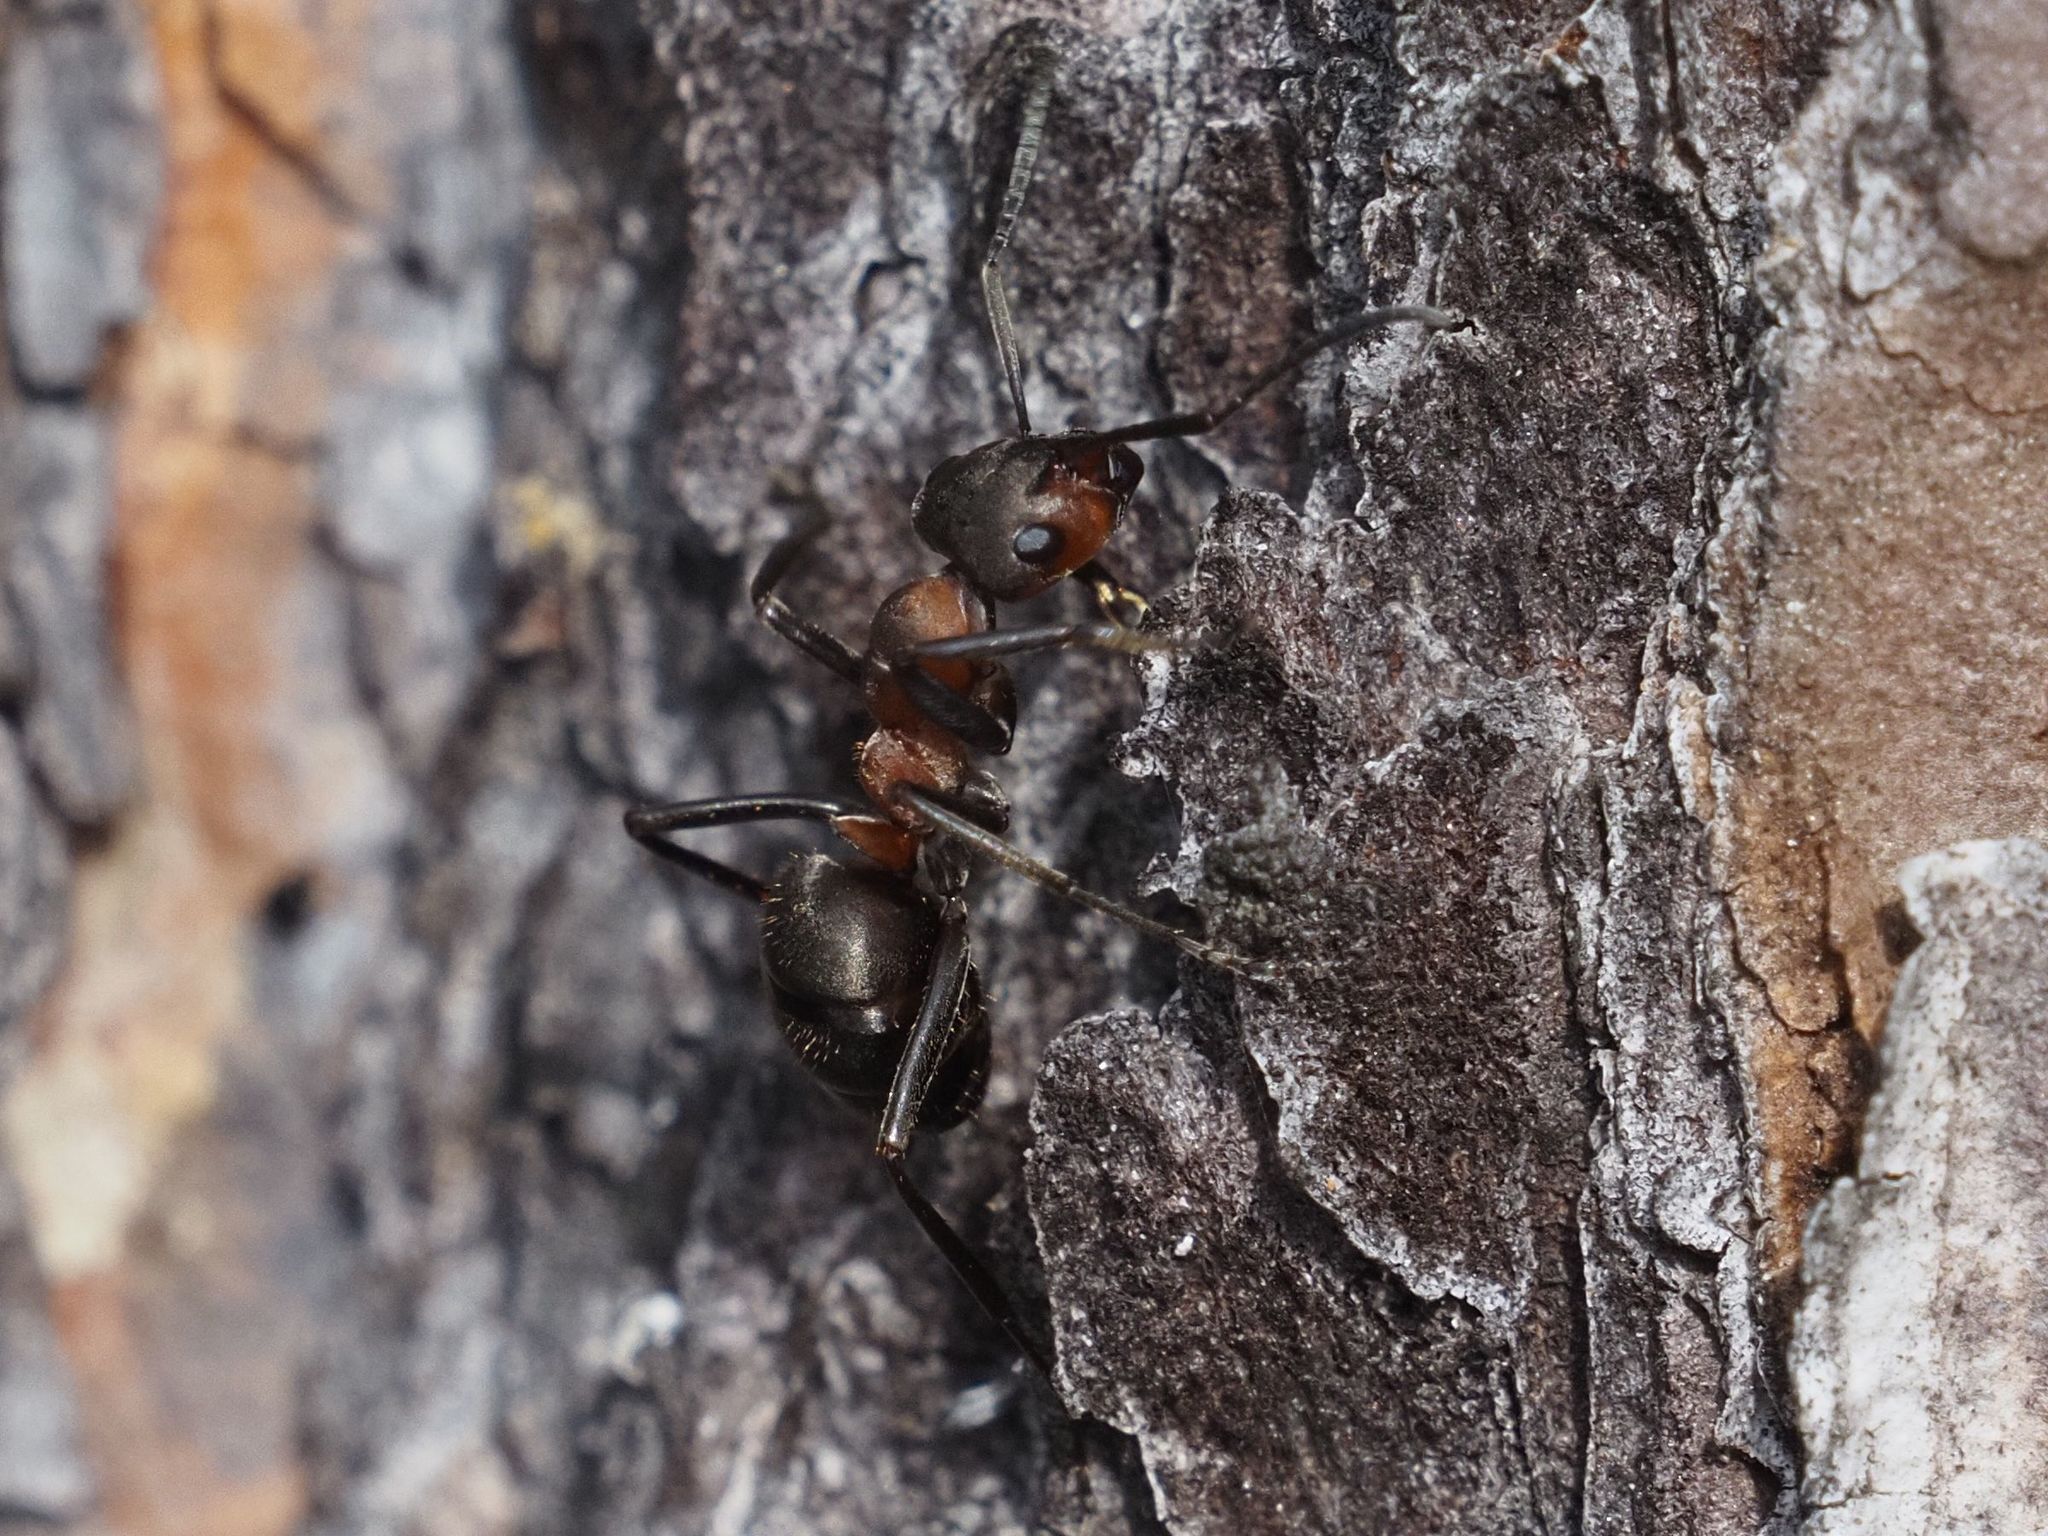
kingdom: Animalia
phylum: Arthropoda
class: Insecta
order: Hymenoptera
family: Formicidae
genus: Formica
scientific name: Formica
